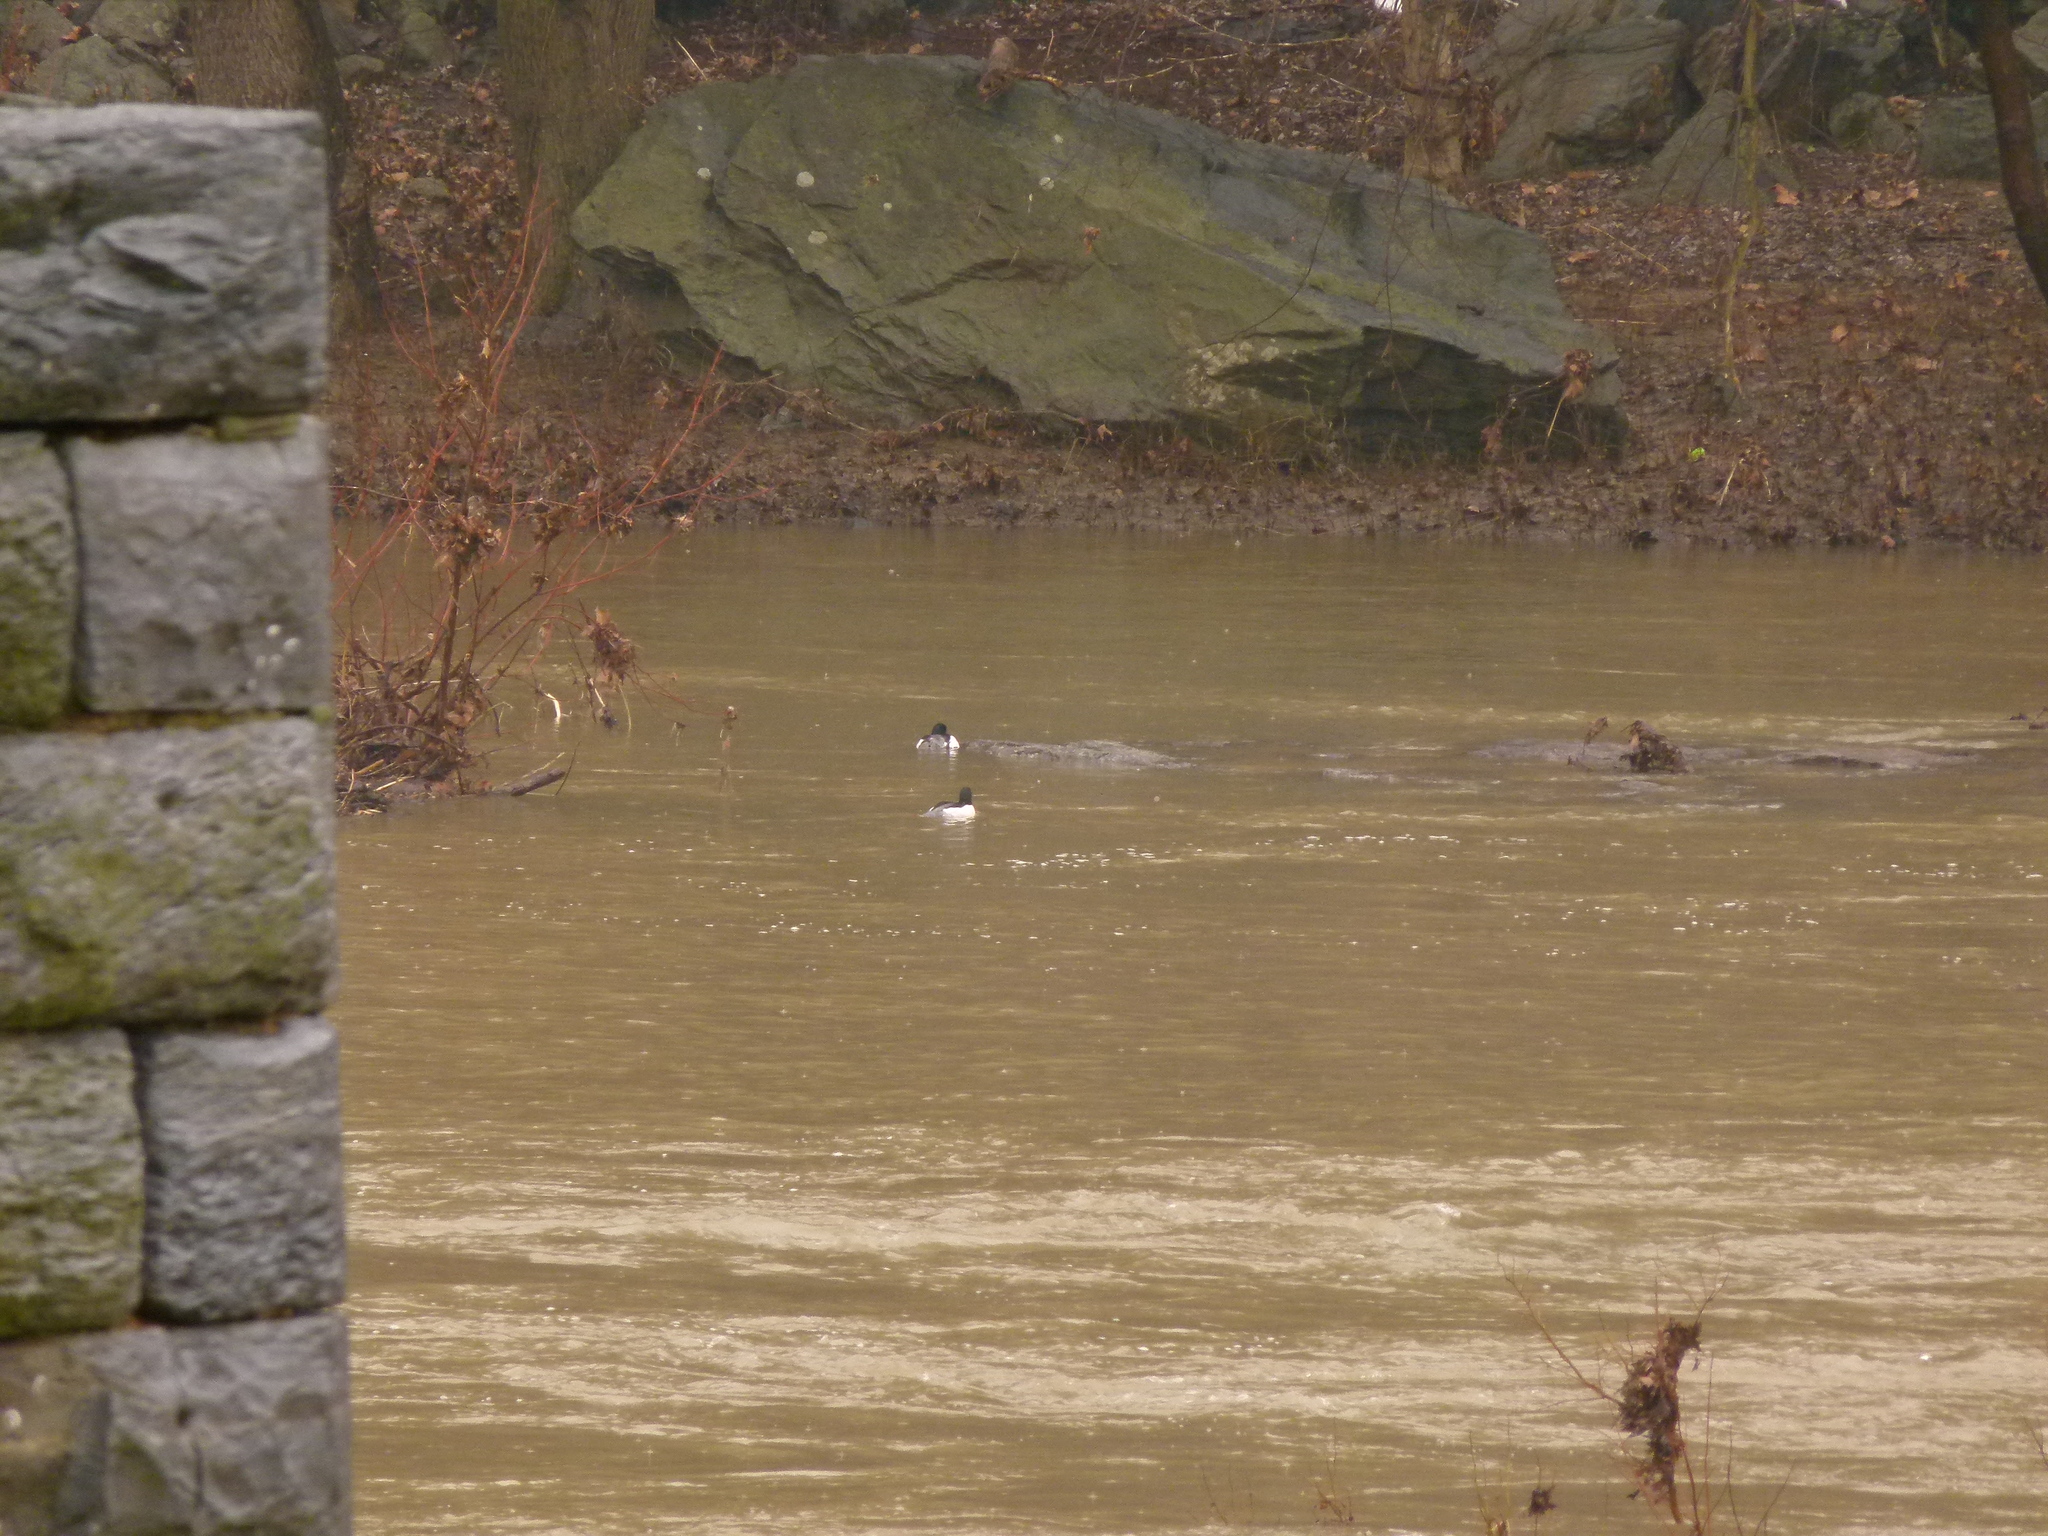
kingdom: Animalia
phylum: Chordata
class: Aves
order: Anseriformes
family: Anatidae
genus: Mergus
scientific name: Mergus merganser
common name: Common merganser
